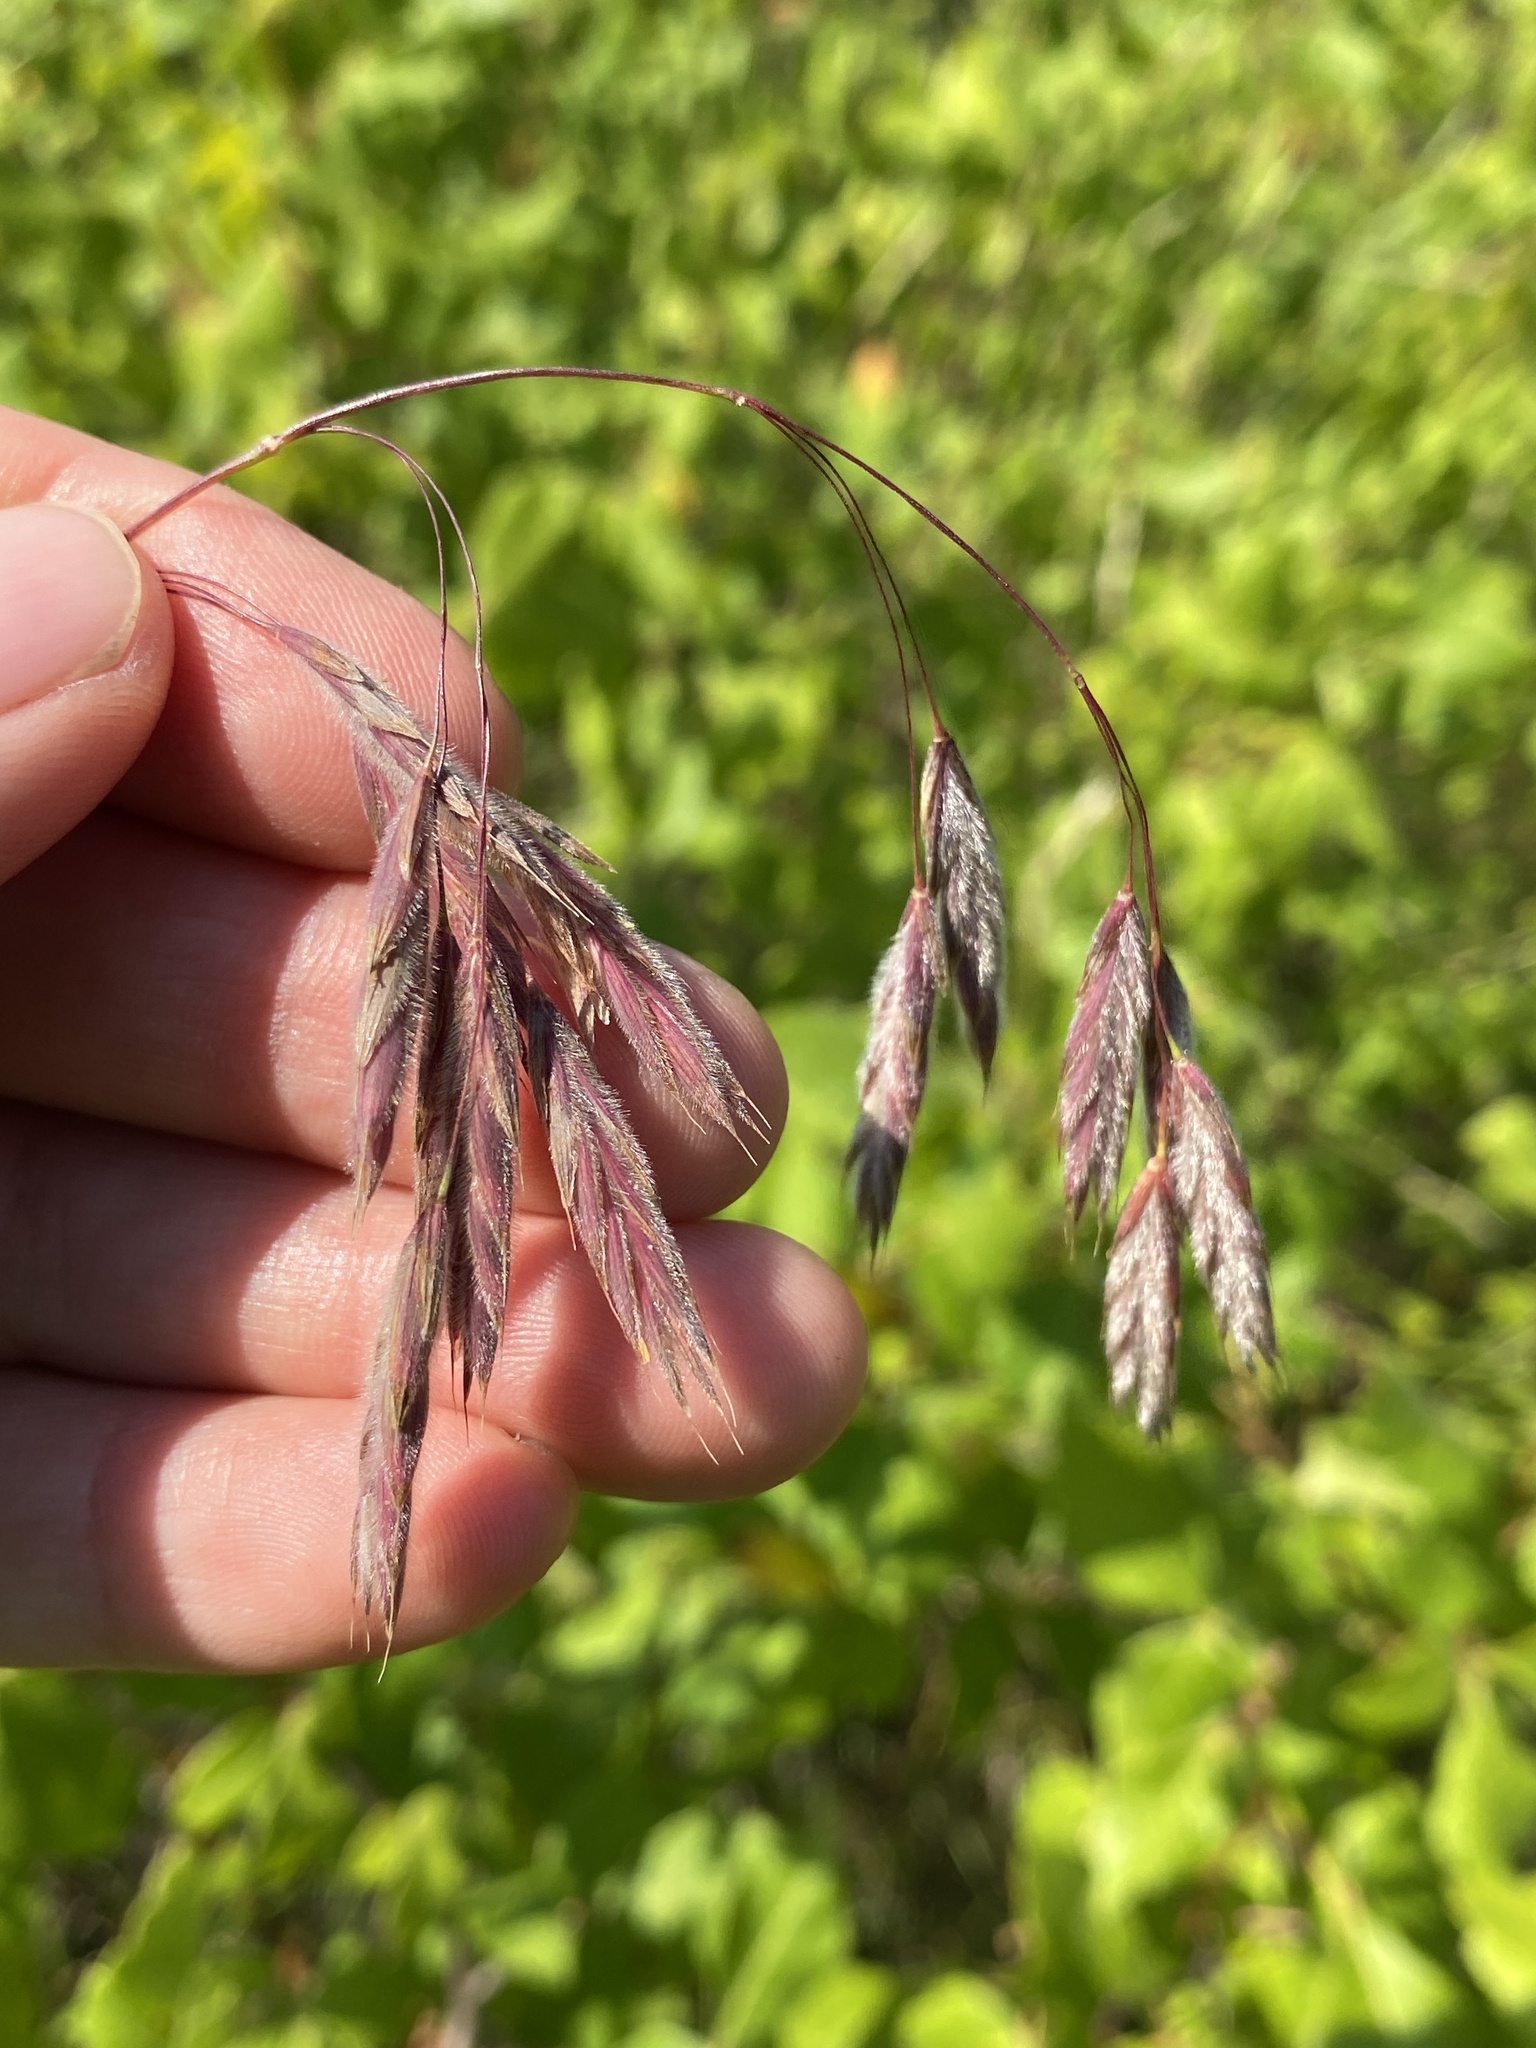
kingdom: Plantae
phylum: Tracheophyta
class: Liliopsida
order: Poales
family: Poaceae
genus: Bromus
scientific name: Bromus kalmii
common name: Kalm brome
